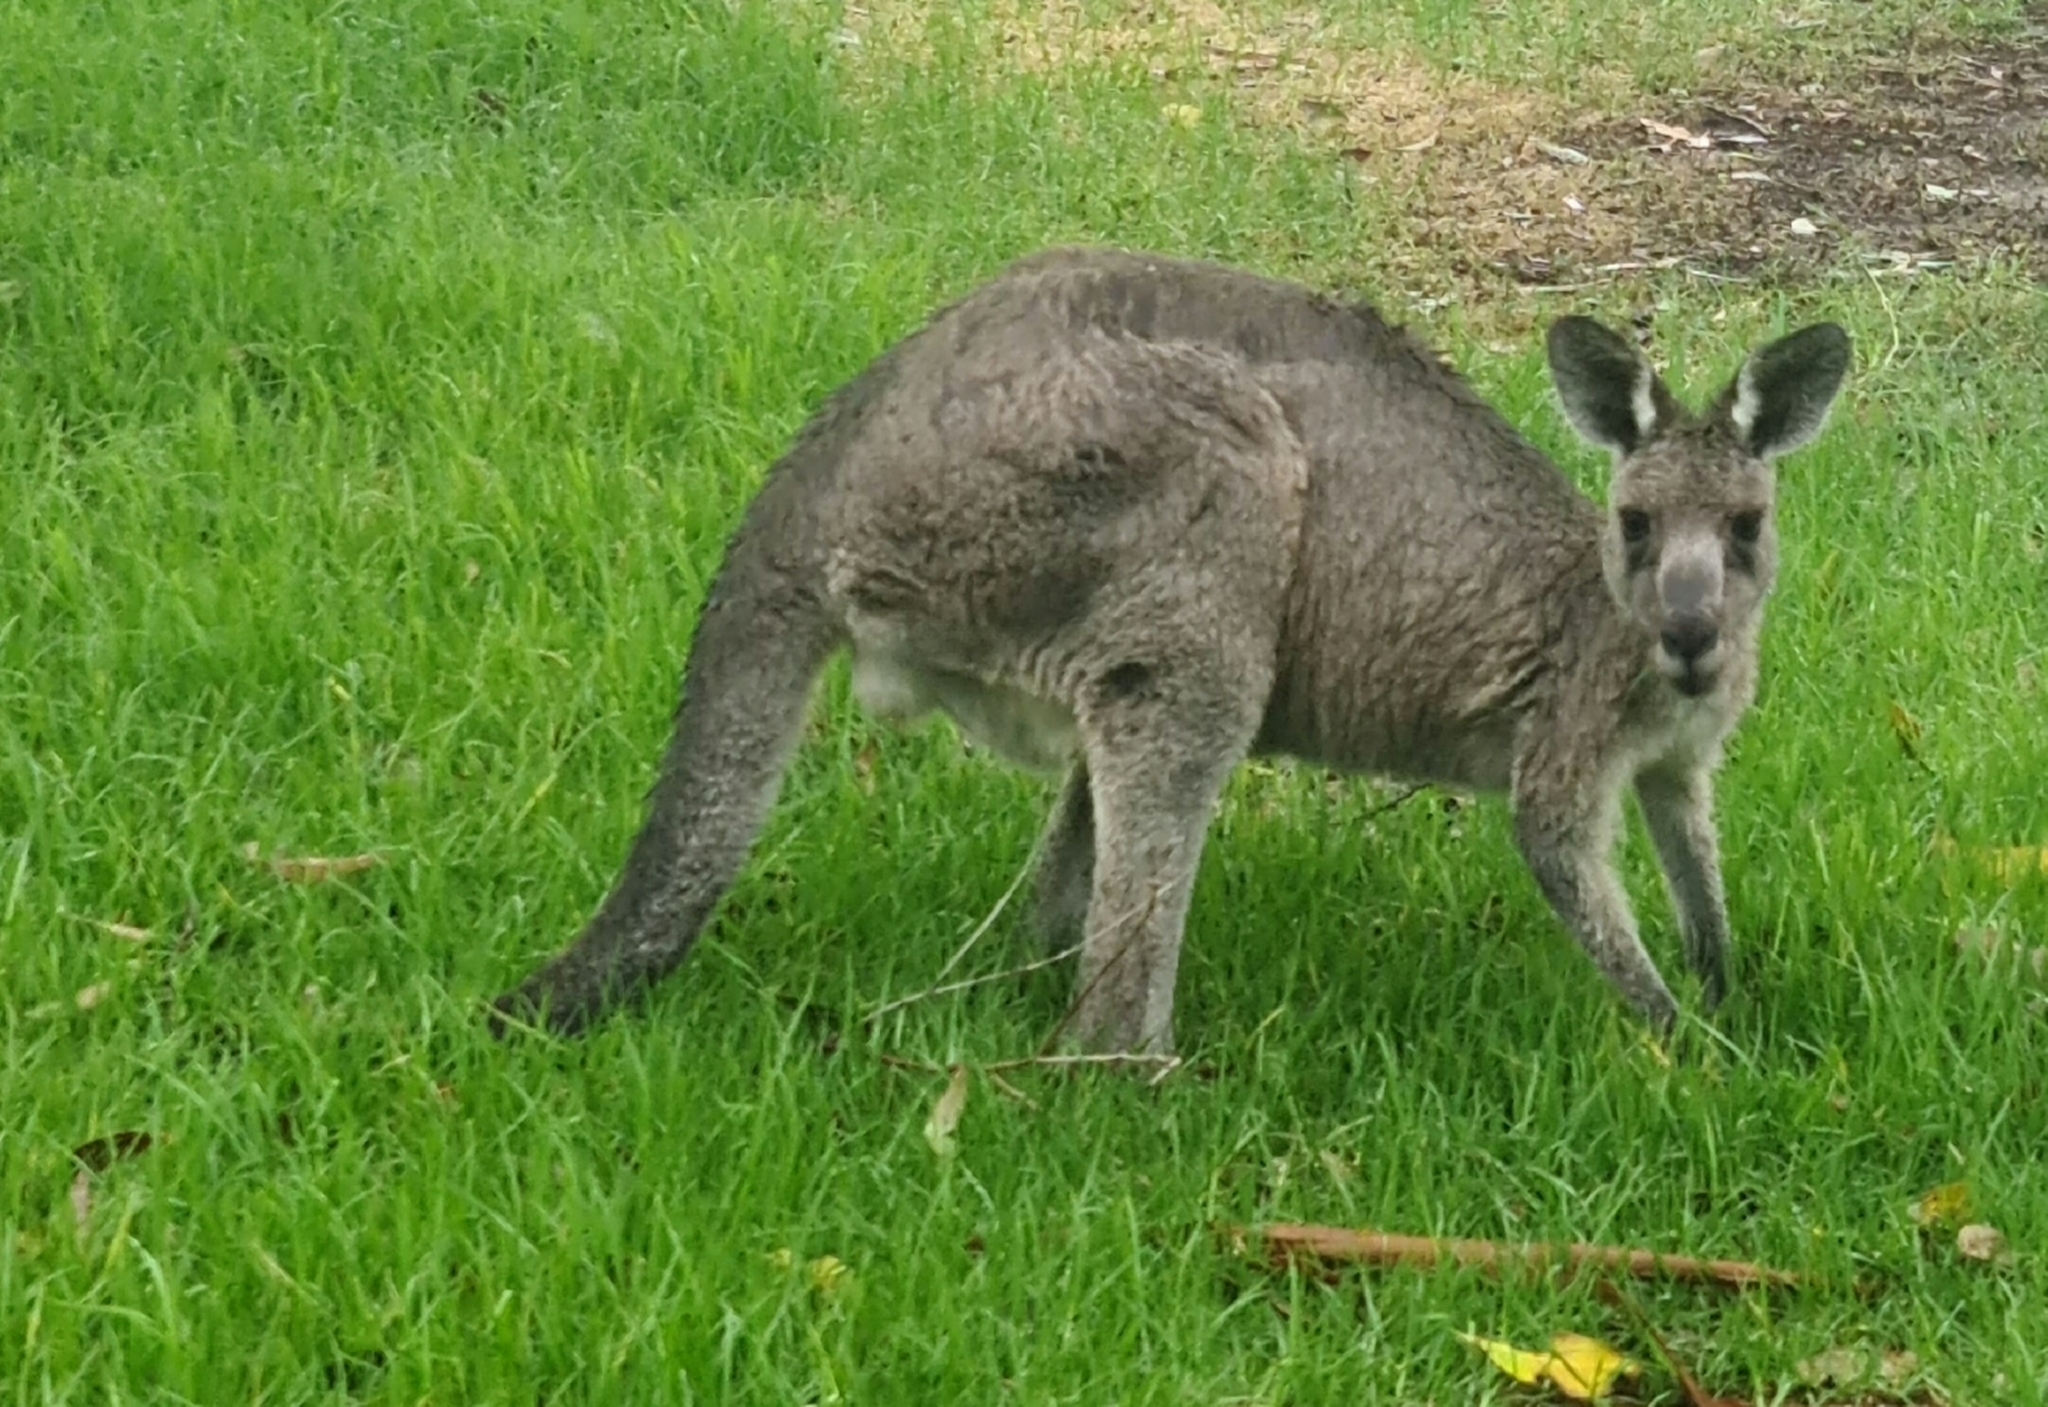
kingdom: Animalia
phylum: Chordata
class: Mammalia
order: Diprotodontia
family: Macropodidae
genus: Macropus
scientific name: Macropus giganteus
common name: Eastern grey kangaroo
